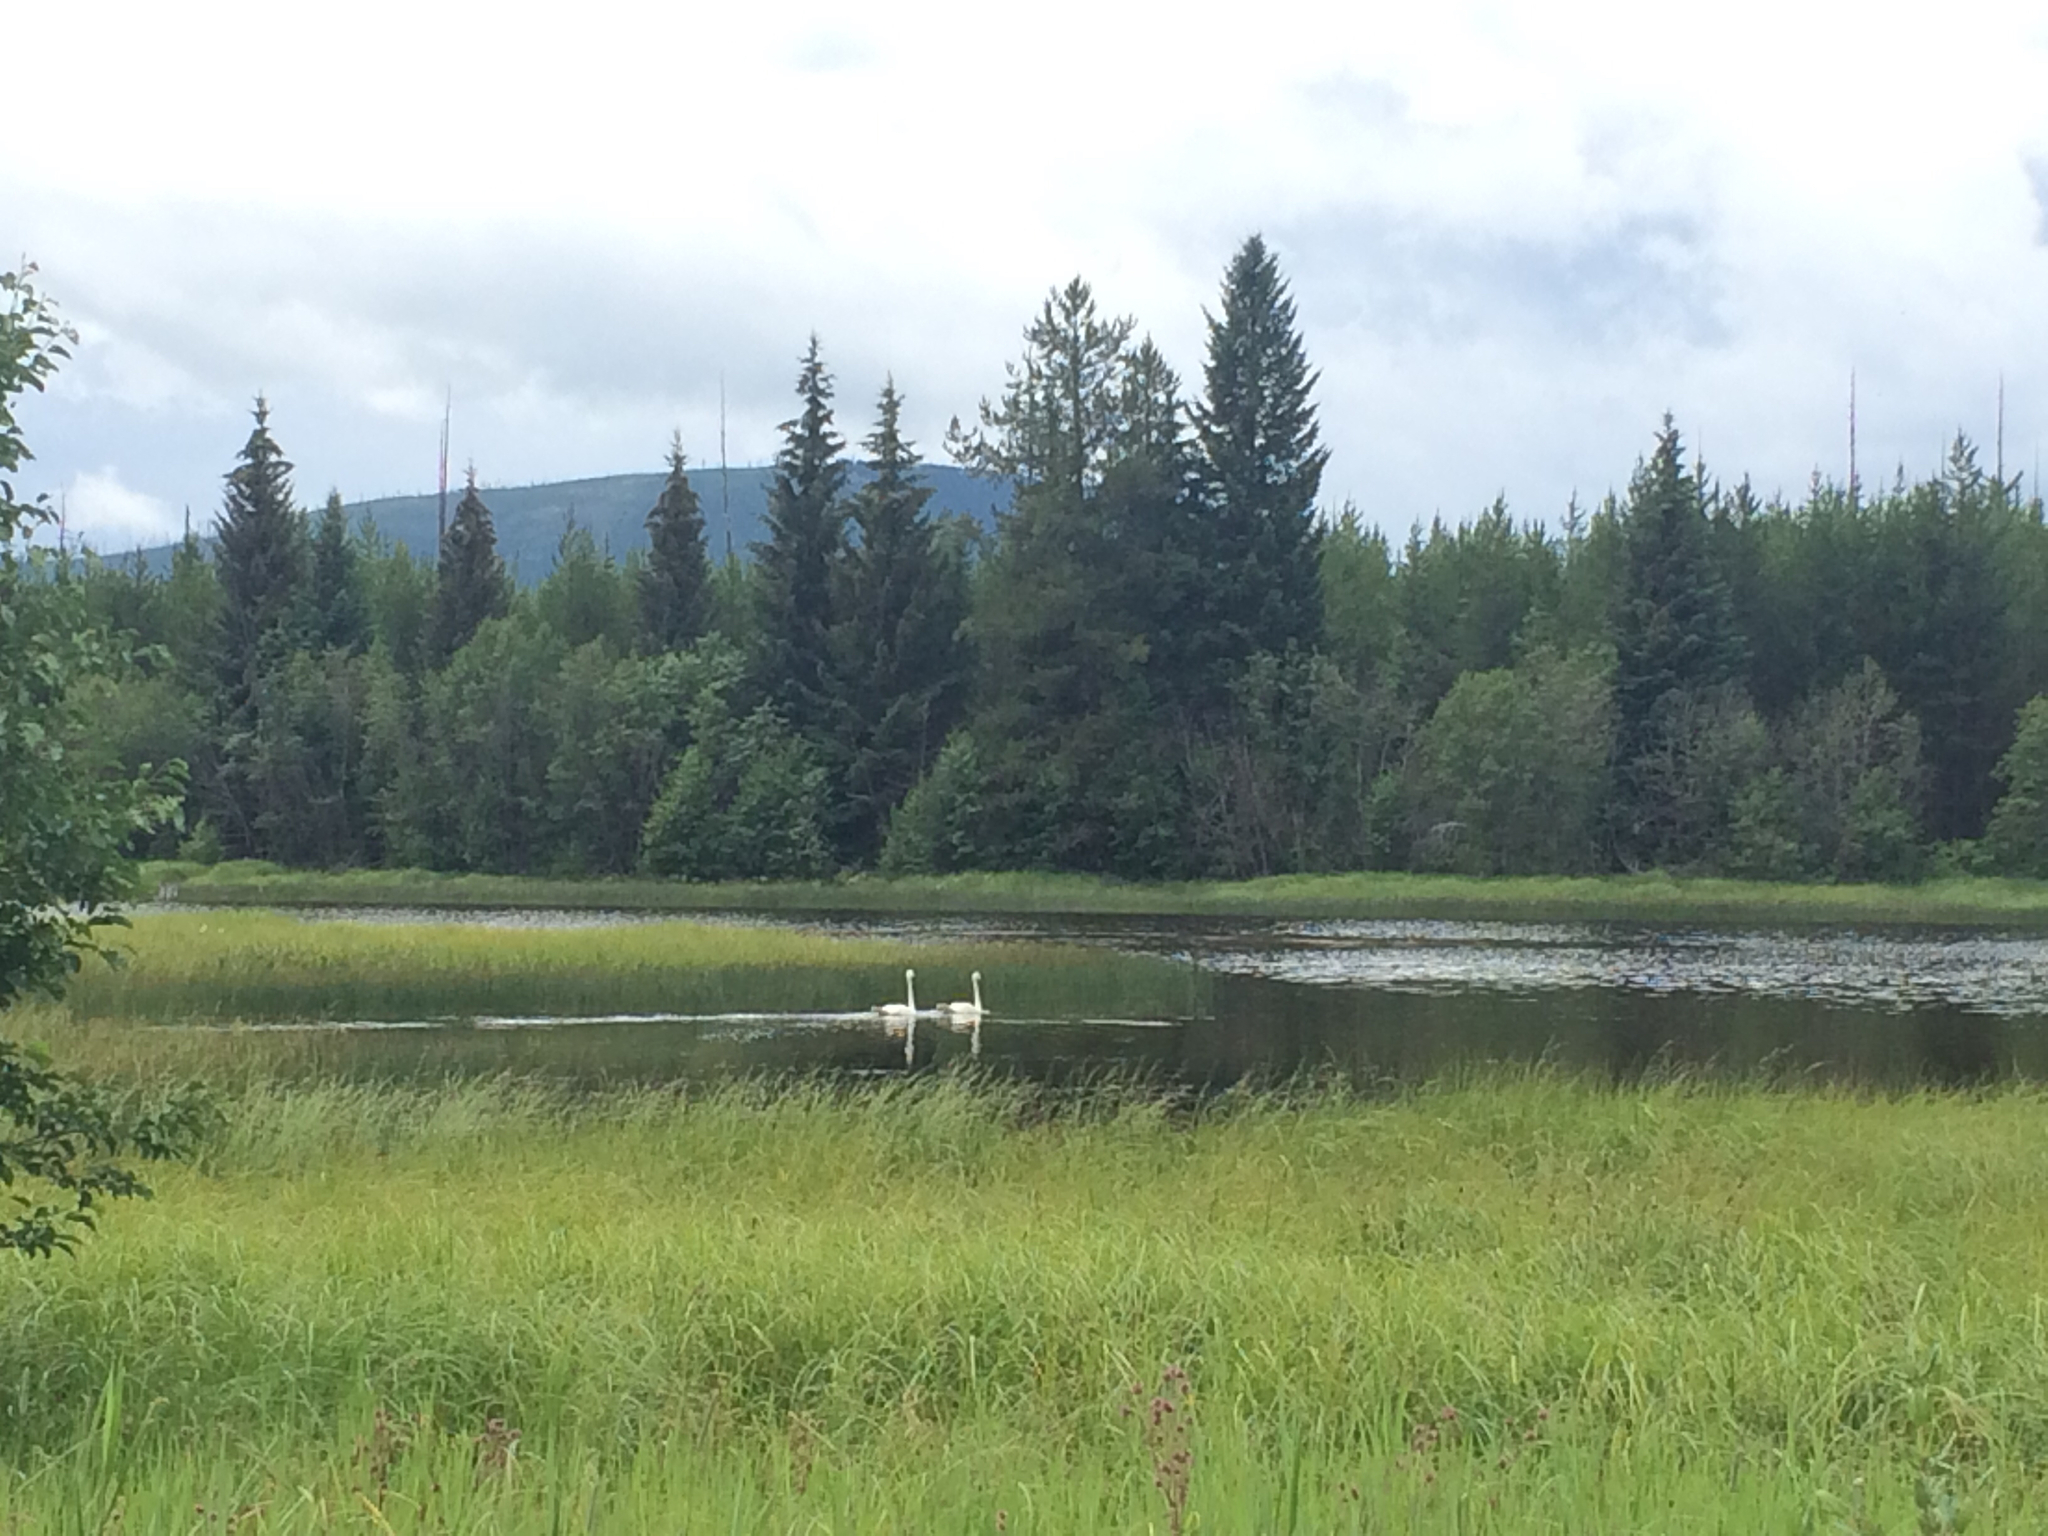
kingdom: Animalia
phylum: Chordata
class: Aves
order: Anseriformes
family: Anatidae
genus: Cygnus
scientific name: Cygnus buccinator
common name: Trumpeter swan
